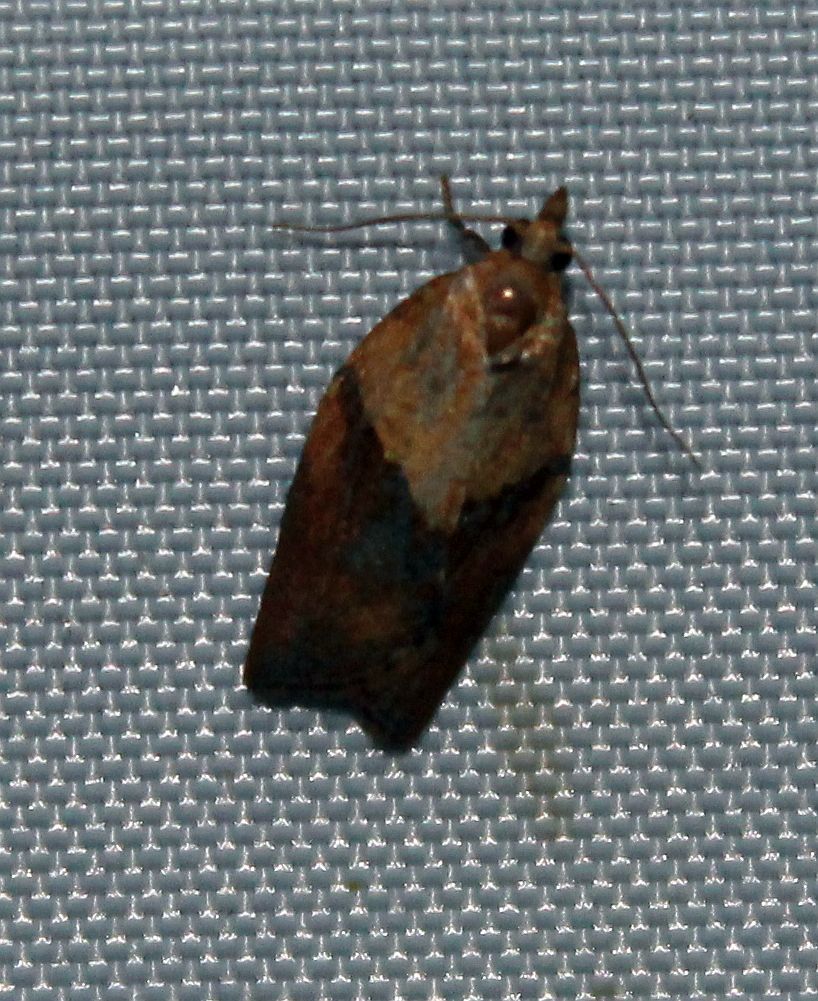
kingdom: Animalia
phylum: Arthropoda
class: Insecta
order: Lepidoptera
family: Tortricidae
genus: Epiphyas
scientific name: Epiphyas postvittana
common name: Light brown apple moth
